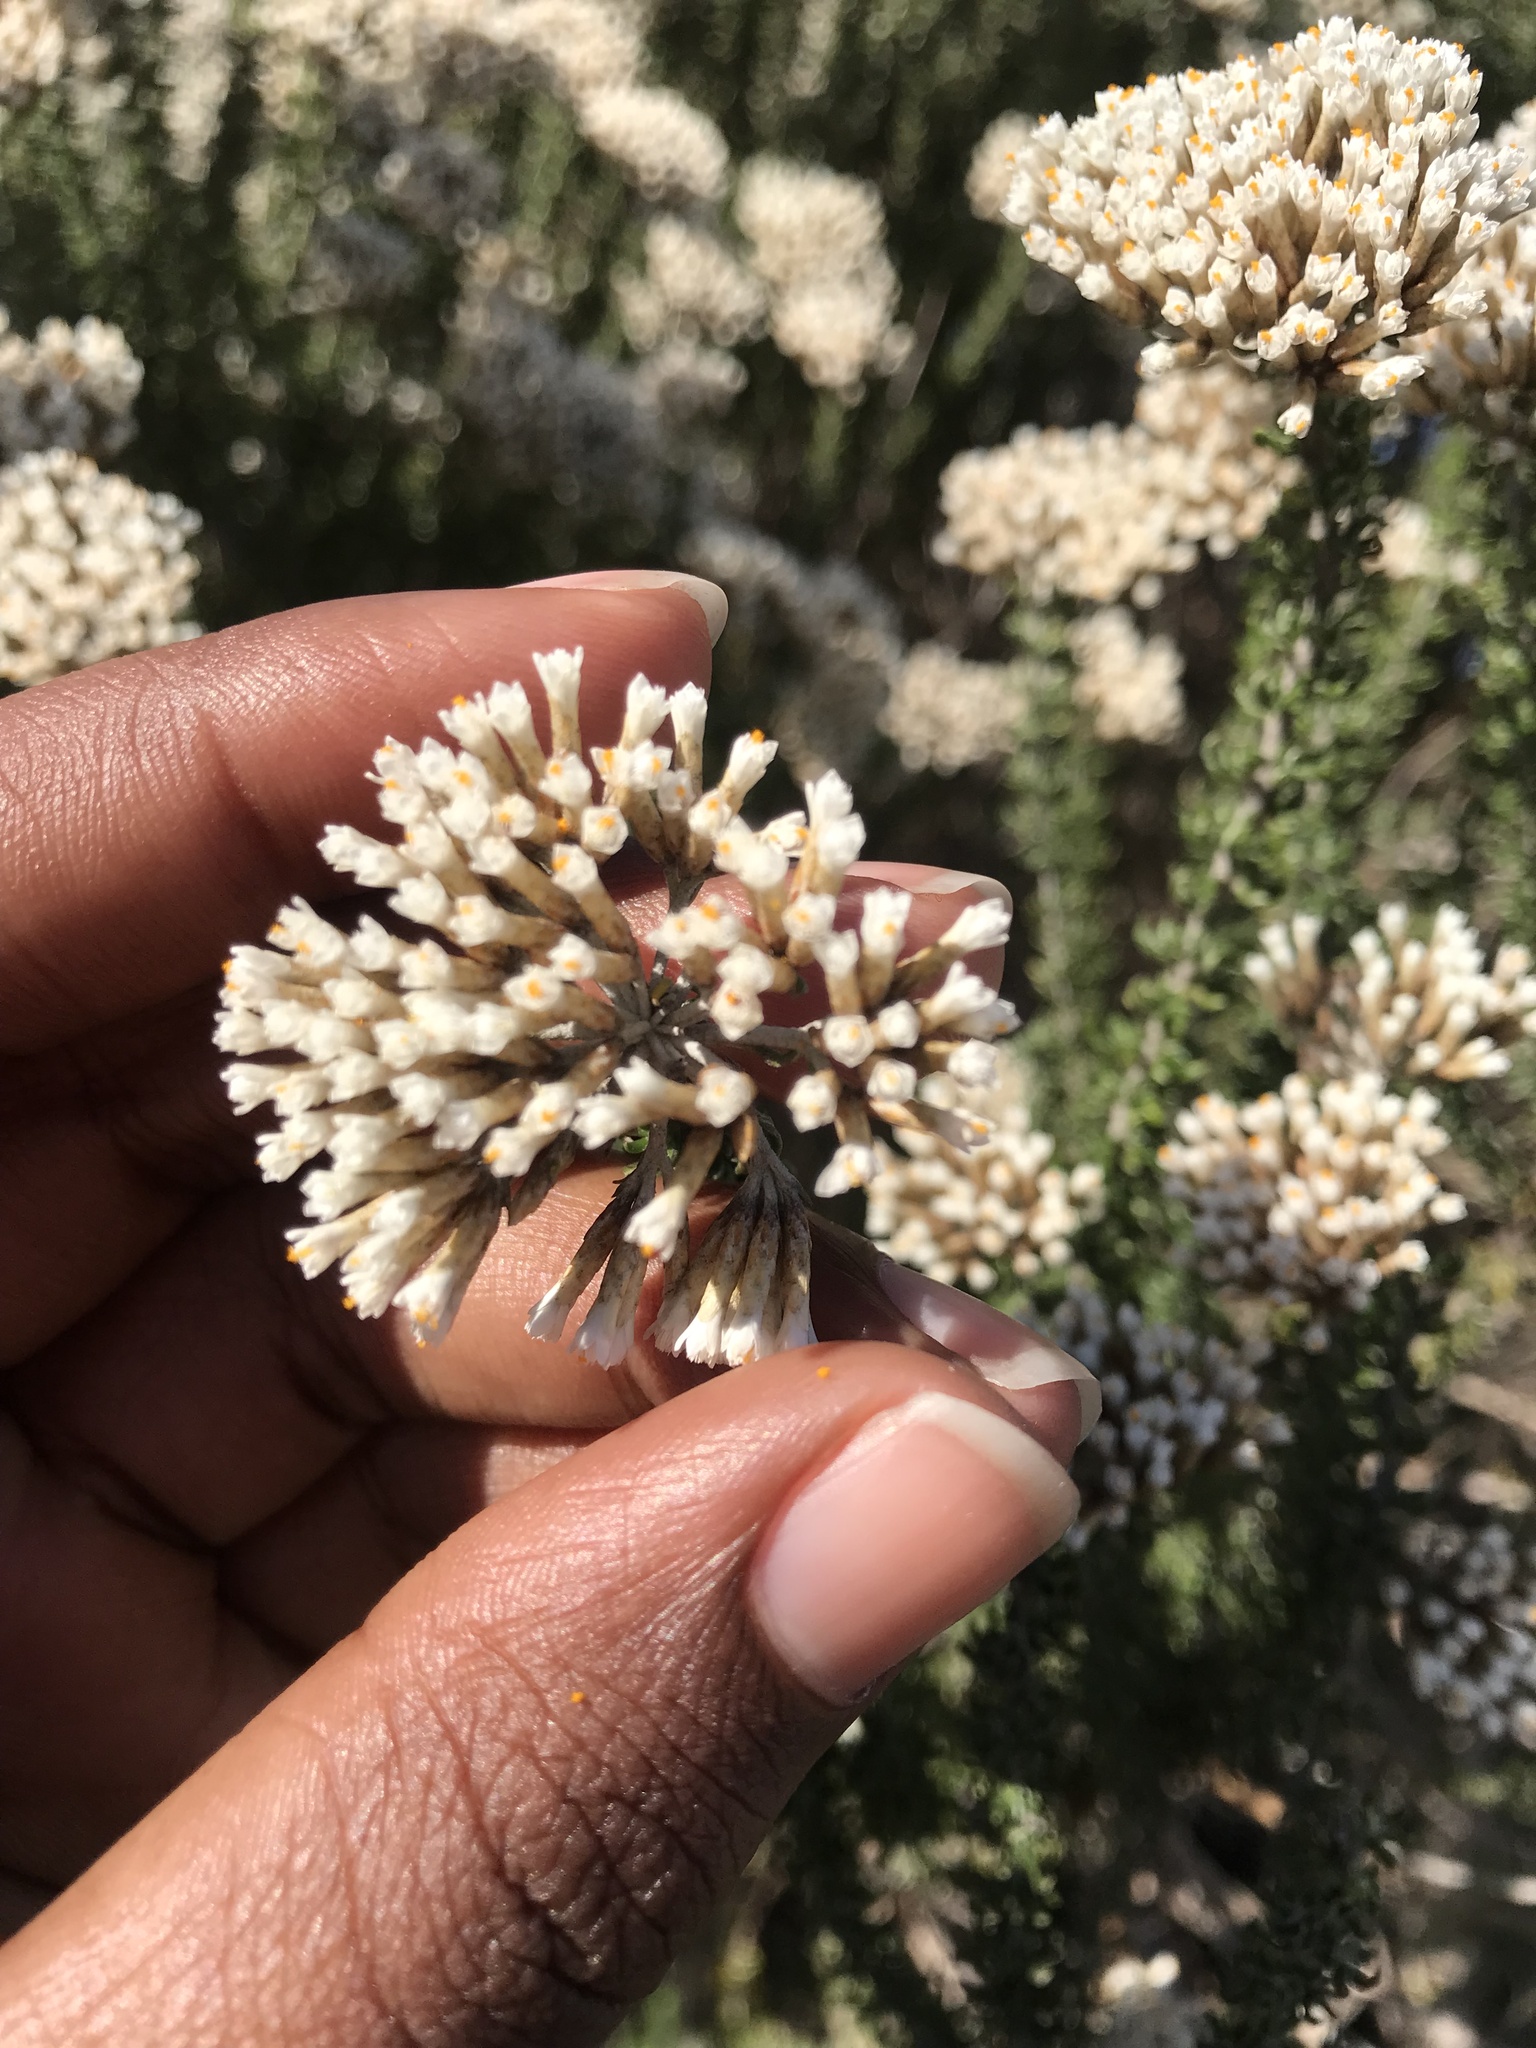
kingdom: Plantae
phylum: Tracheophyta
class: Magnoliopsida
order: Asterales
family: Asteraceae
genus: Metalasia
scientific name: Metalasia muricata
